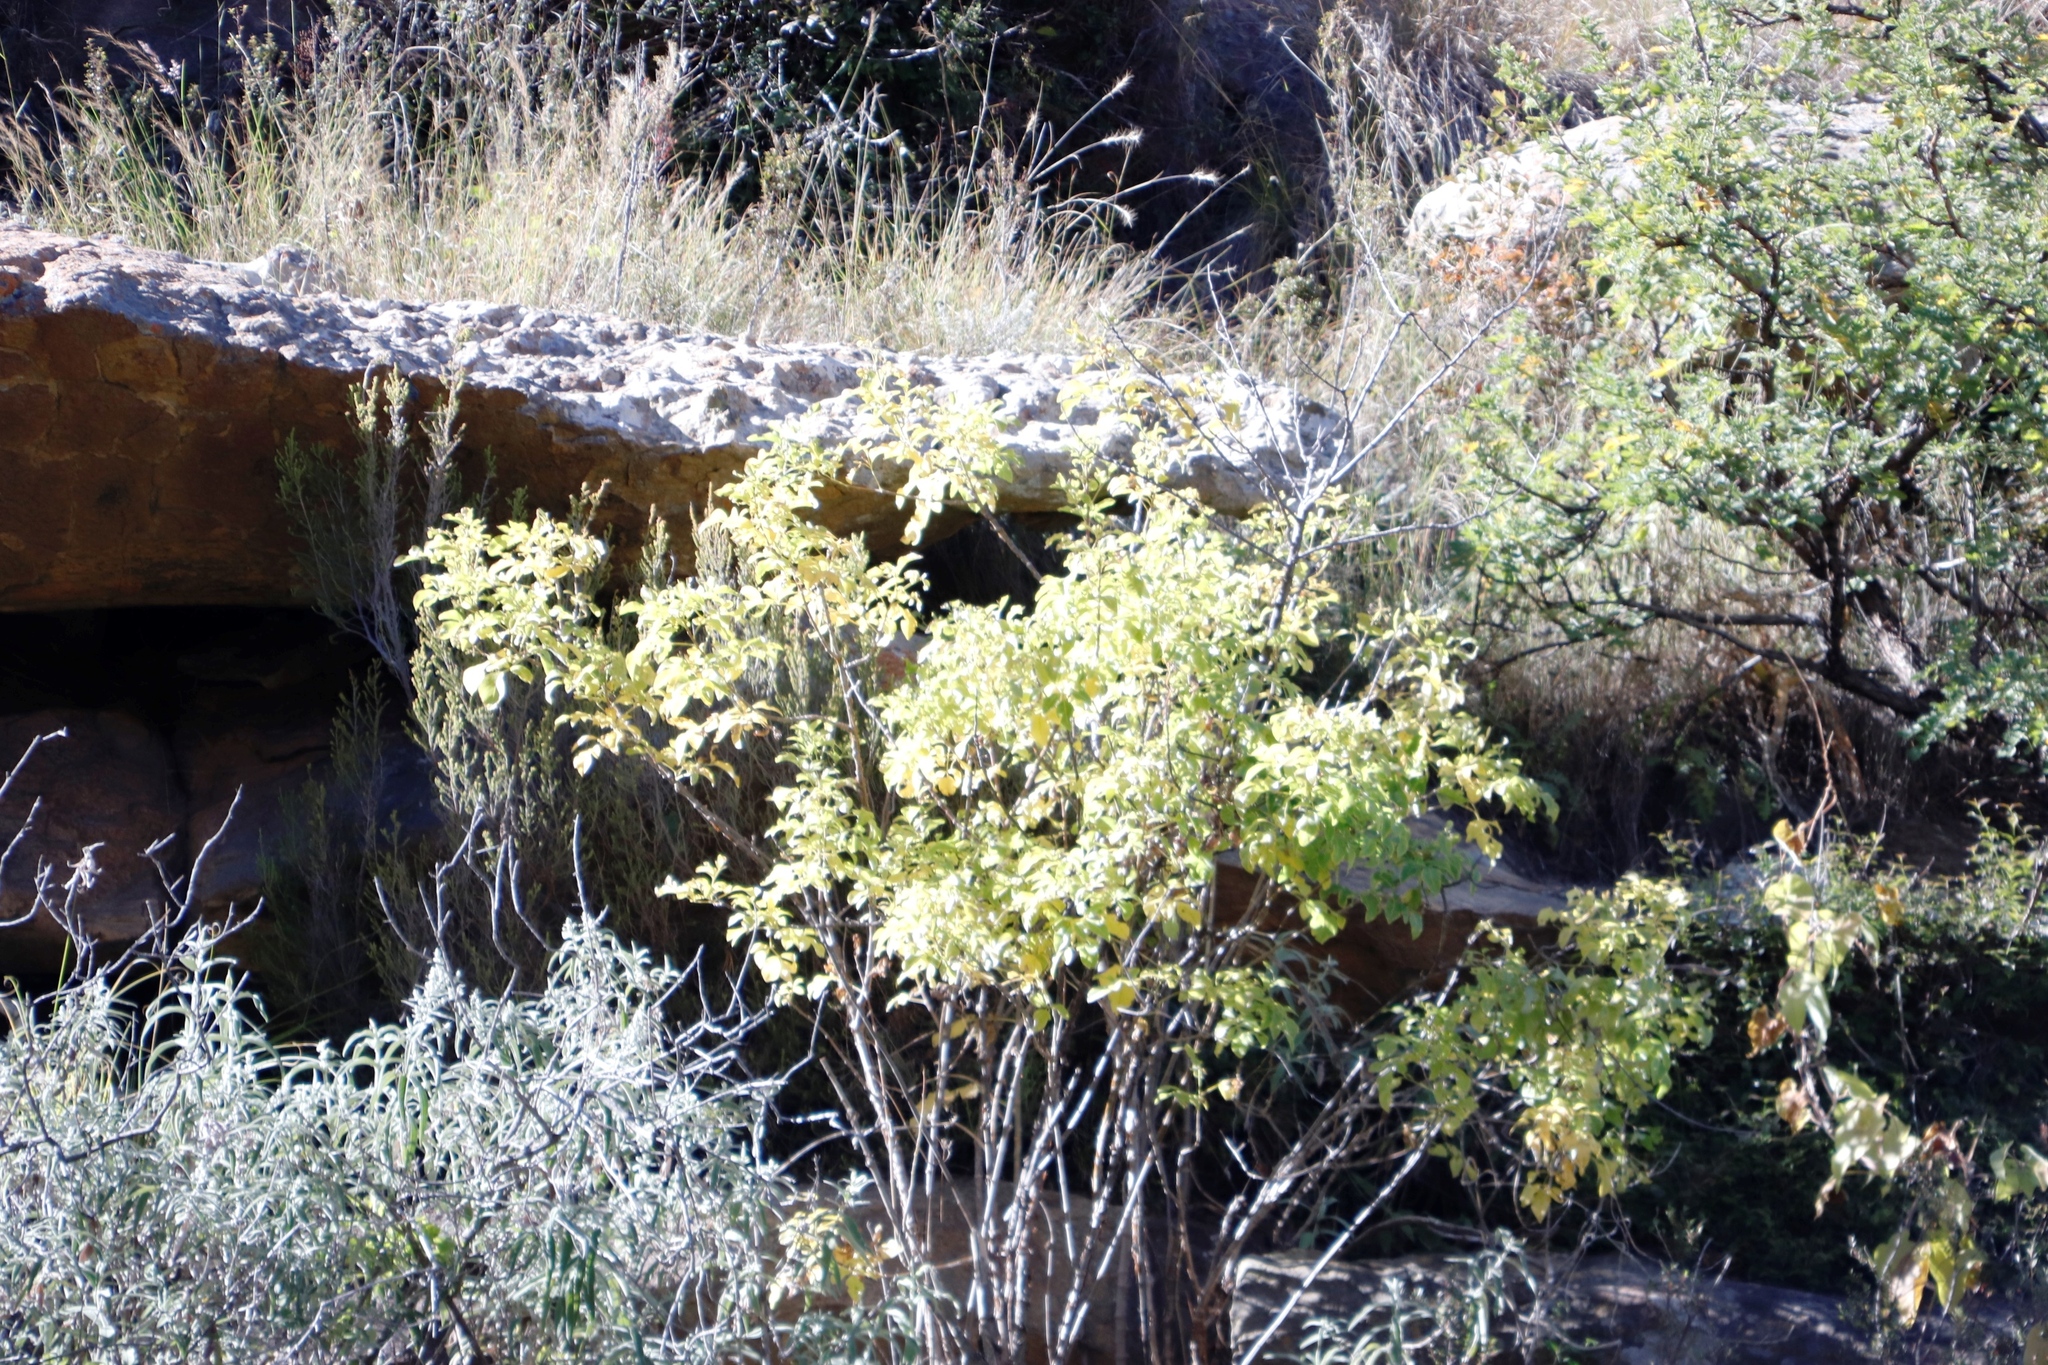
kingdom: Plantae
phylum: Tracheophyta
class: Magnoliopsida
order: Apiales
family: Apiaceae
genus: Heteromorpha
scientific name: Heteromorpha arborescens
